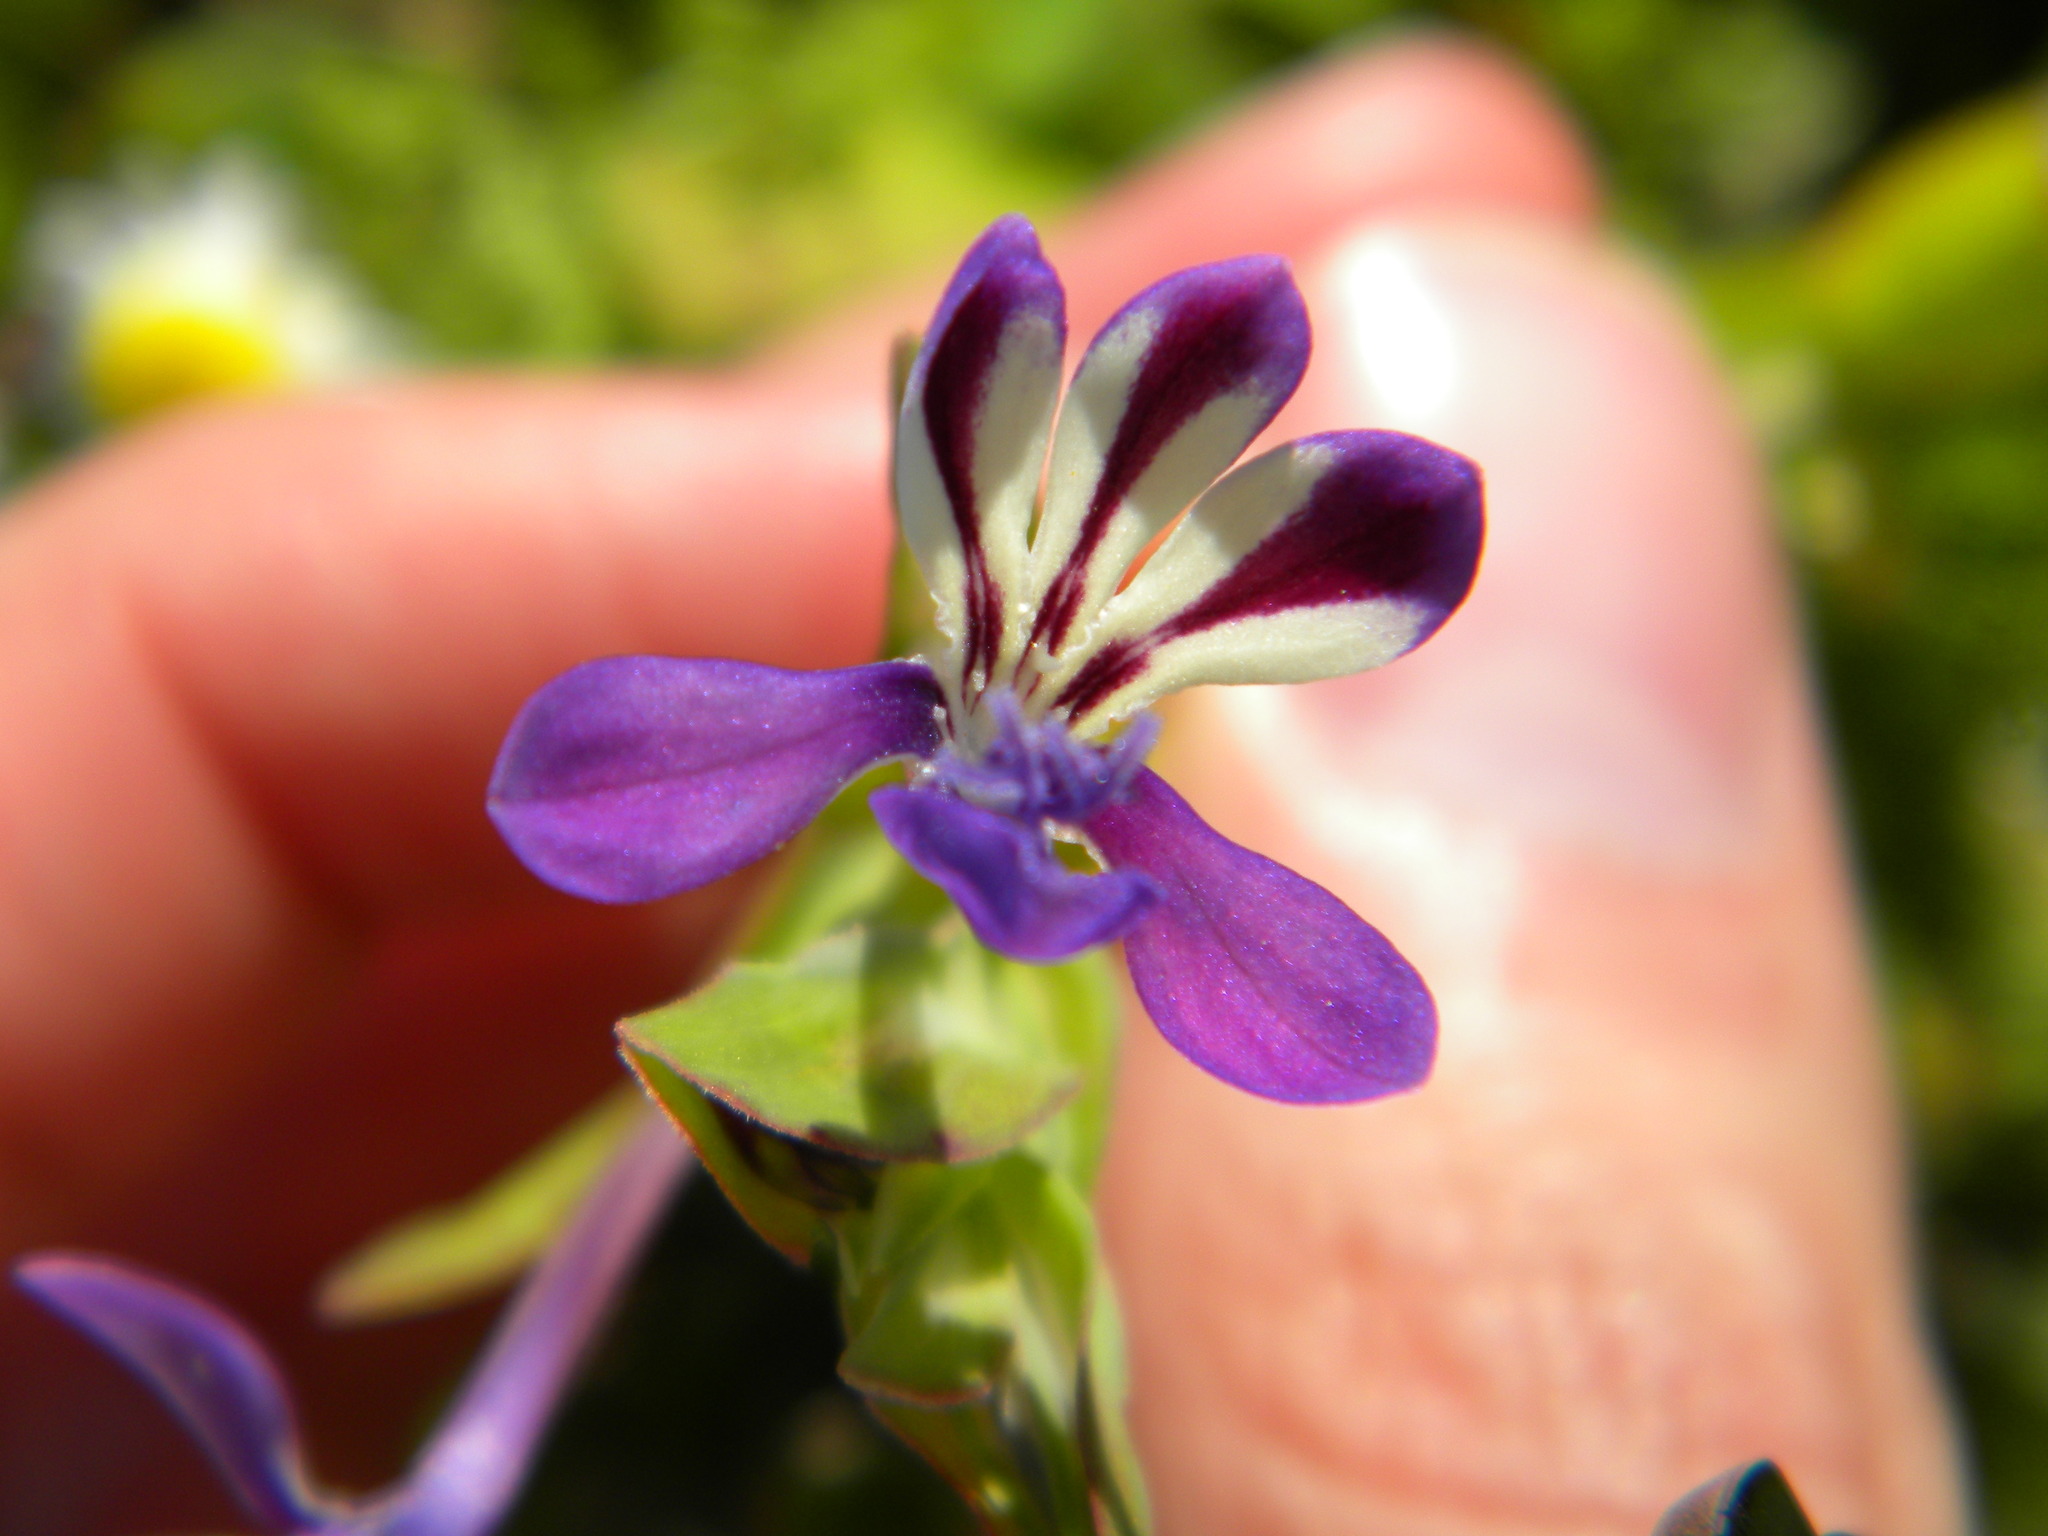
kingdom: Plantae
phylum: Tracheophyta
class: Liliopsida
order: Asparagales
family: Iridaceae
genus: Lapeirousia
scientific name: Lapeirousia jacquinii
